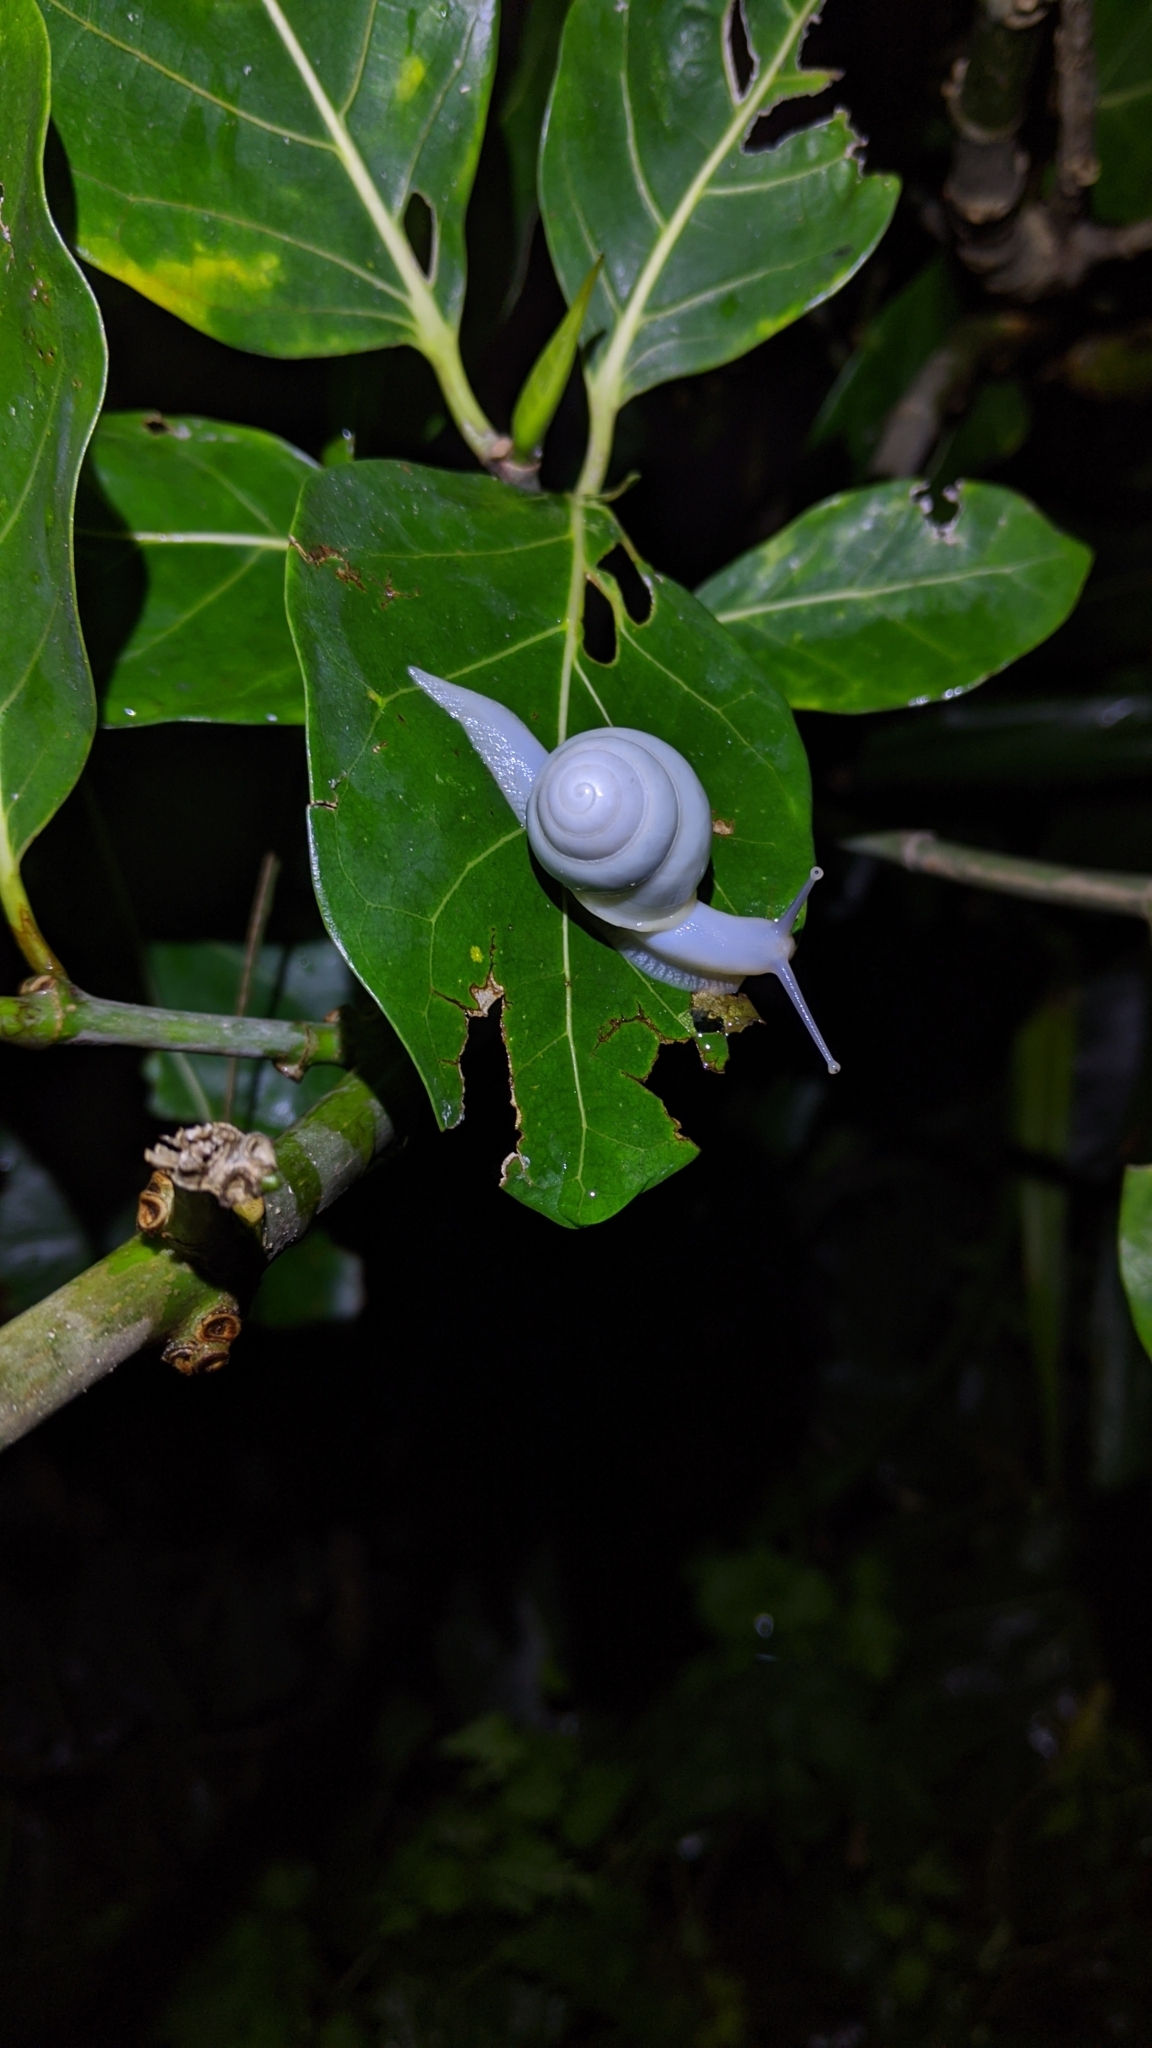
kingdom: Animalia
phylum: Mollusca
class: Gastropoda
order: Stylommatophora
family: Camaenidae
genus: Helicostyla
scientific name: Helicostyla okadai
